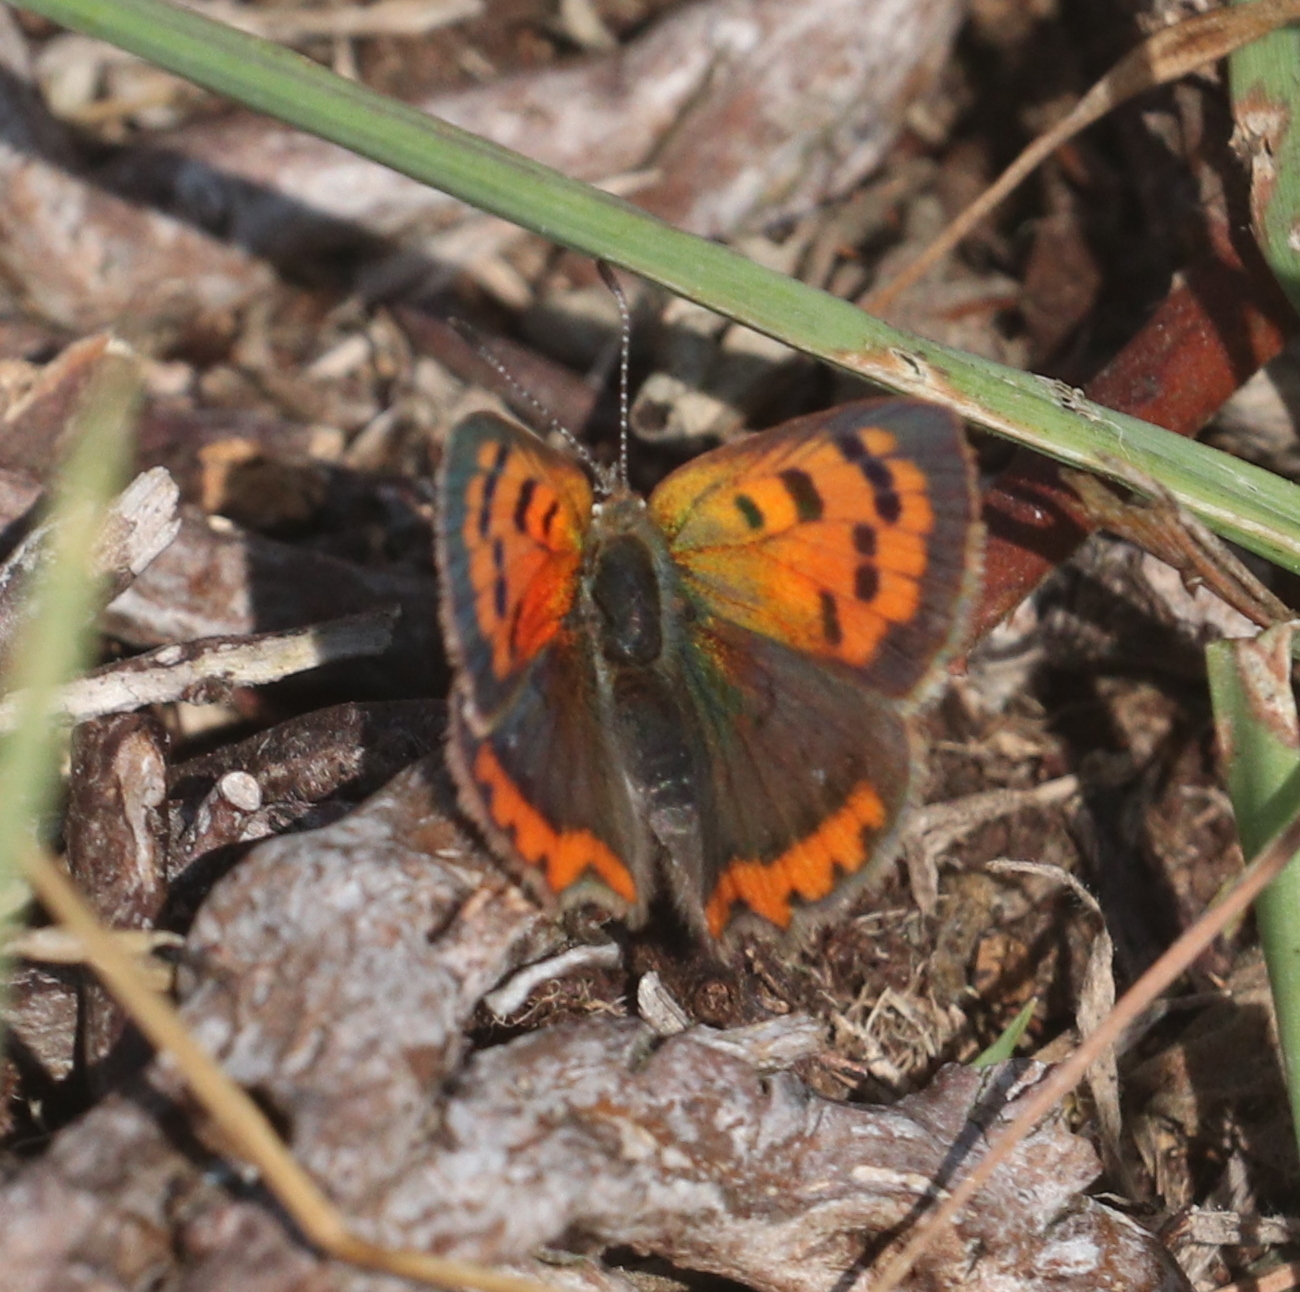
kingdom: Animalia
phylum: Arthropoda
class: Insecta
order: Lepidoptera
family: Lycaenidae
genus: Lycaena
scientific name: Lycaena phlaeas
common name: Small copper
